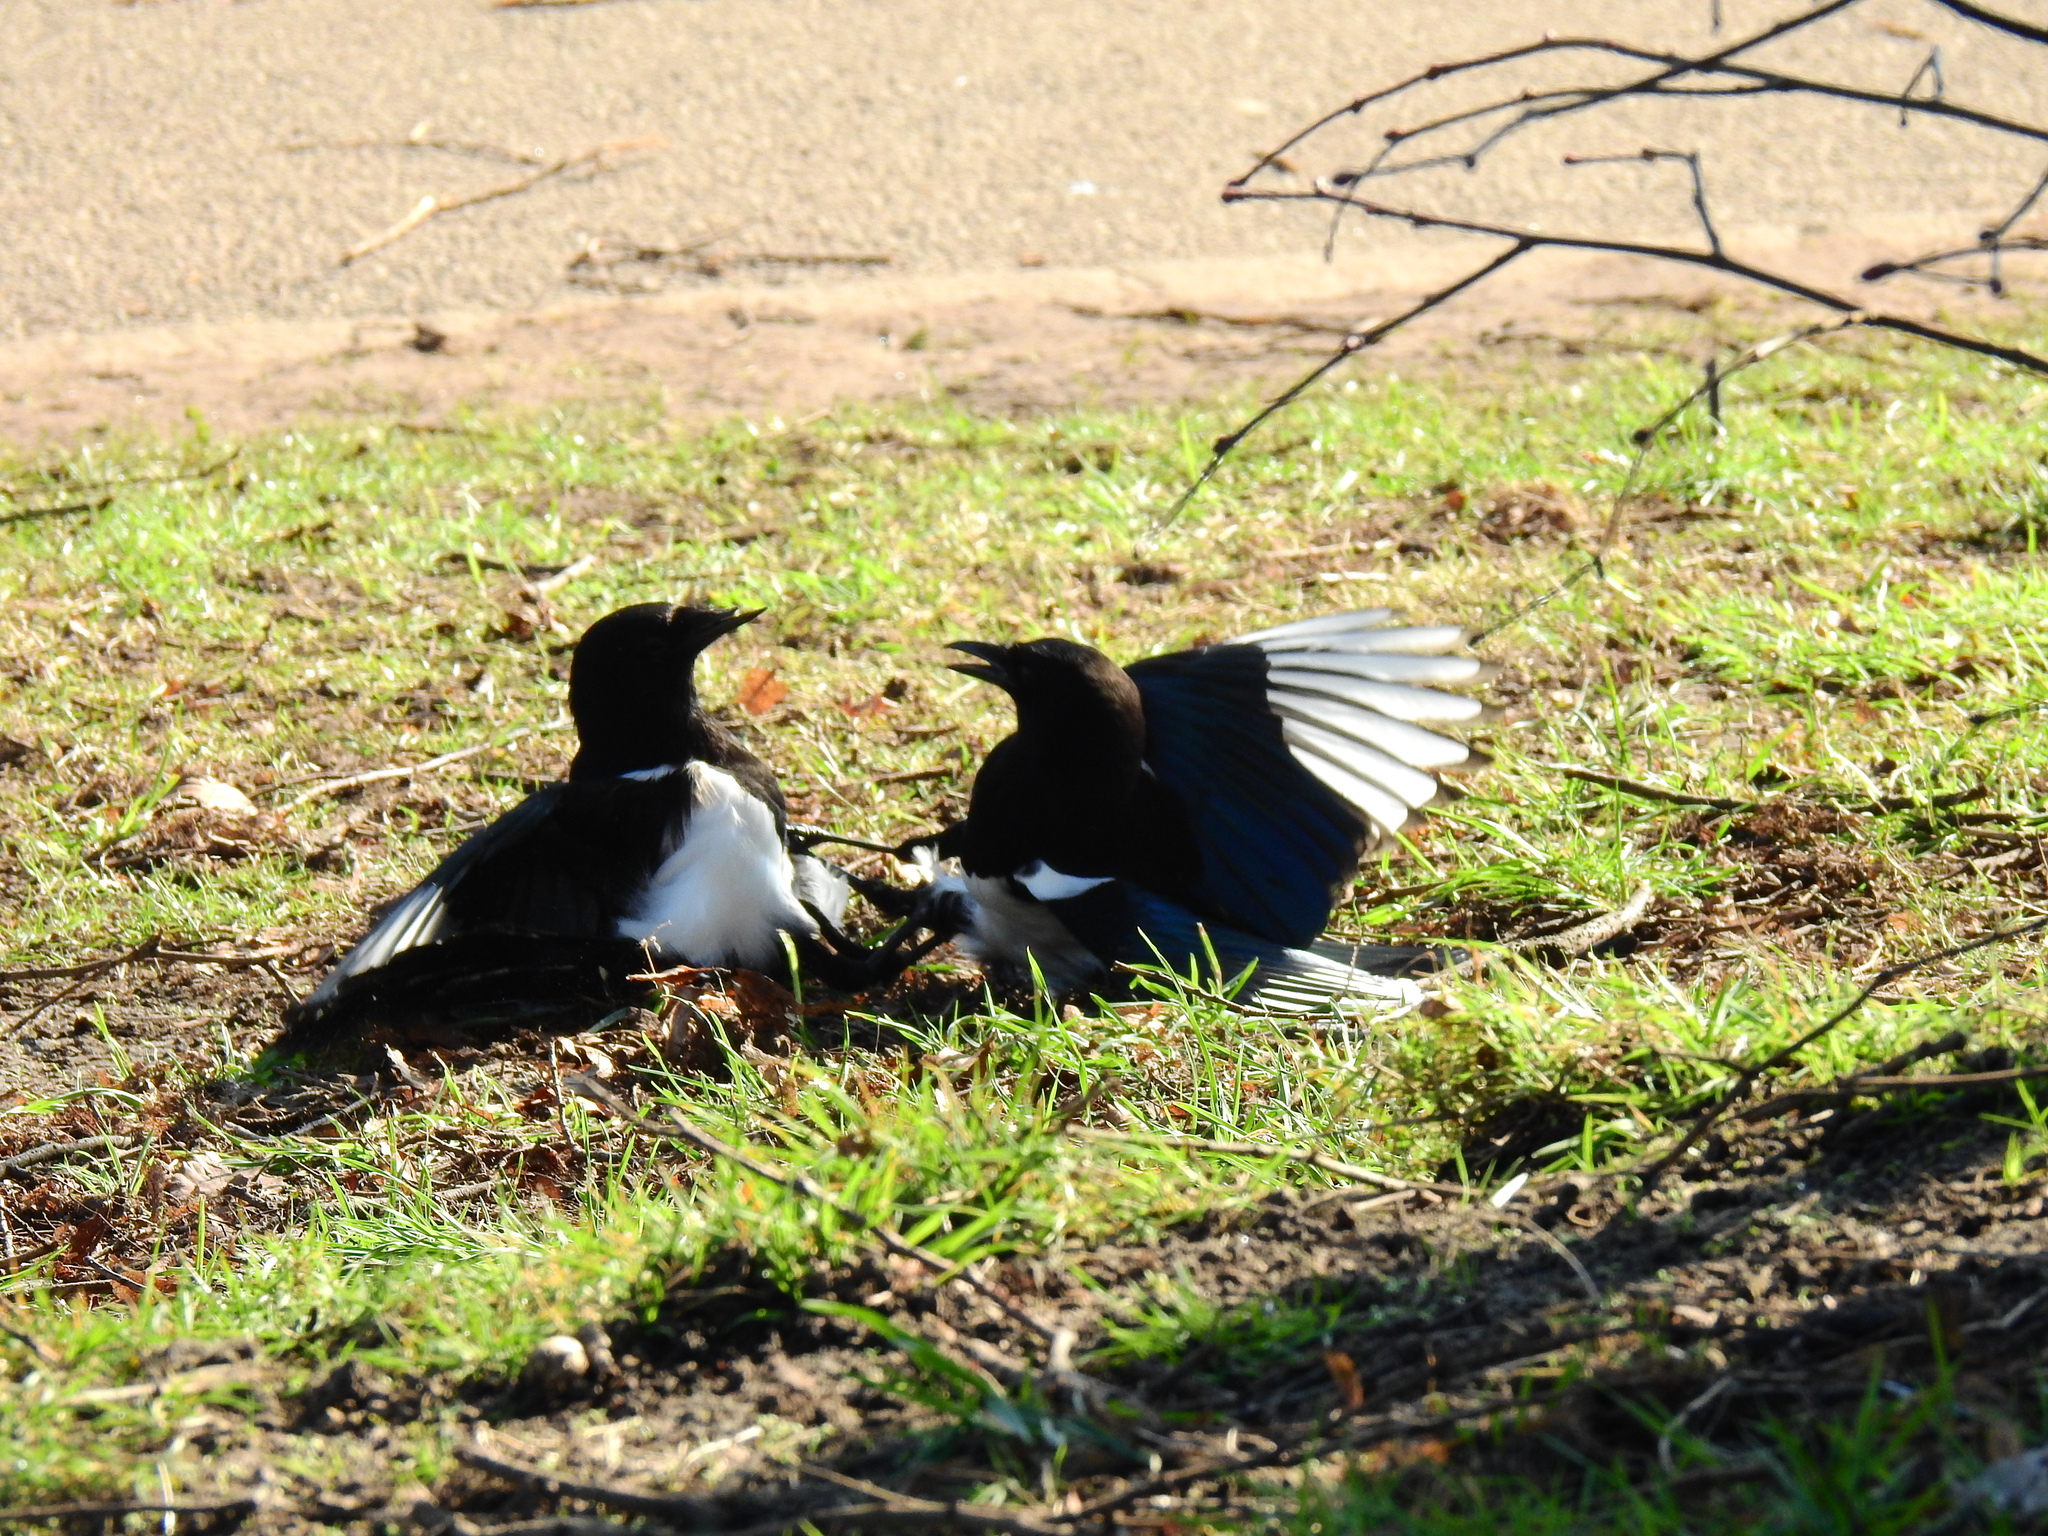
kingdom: Animalia
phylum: Chordata
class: Aves
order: Passeriformes
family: Corvidae
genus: Pica
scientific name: Pica pica
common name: Eurasian magpie
